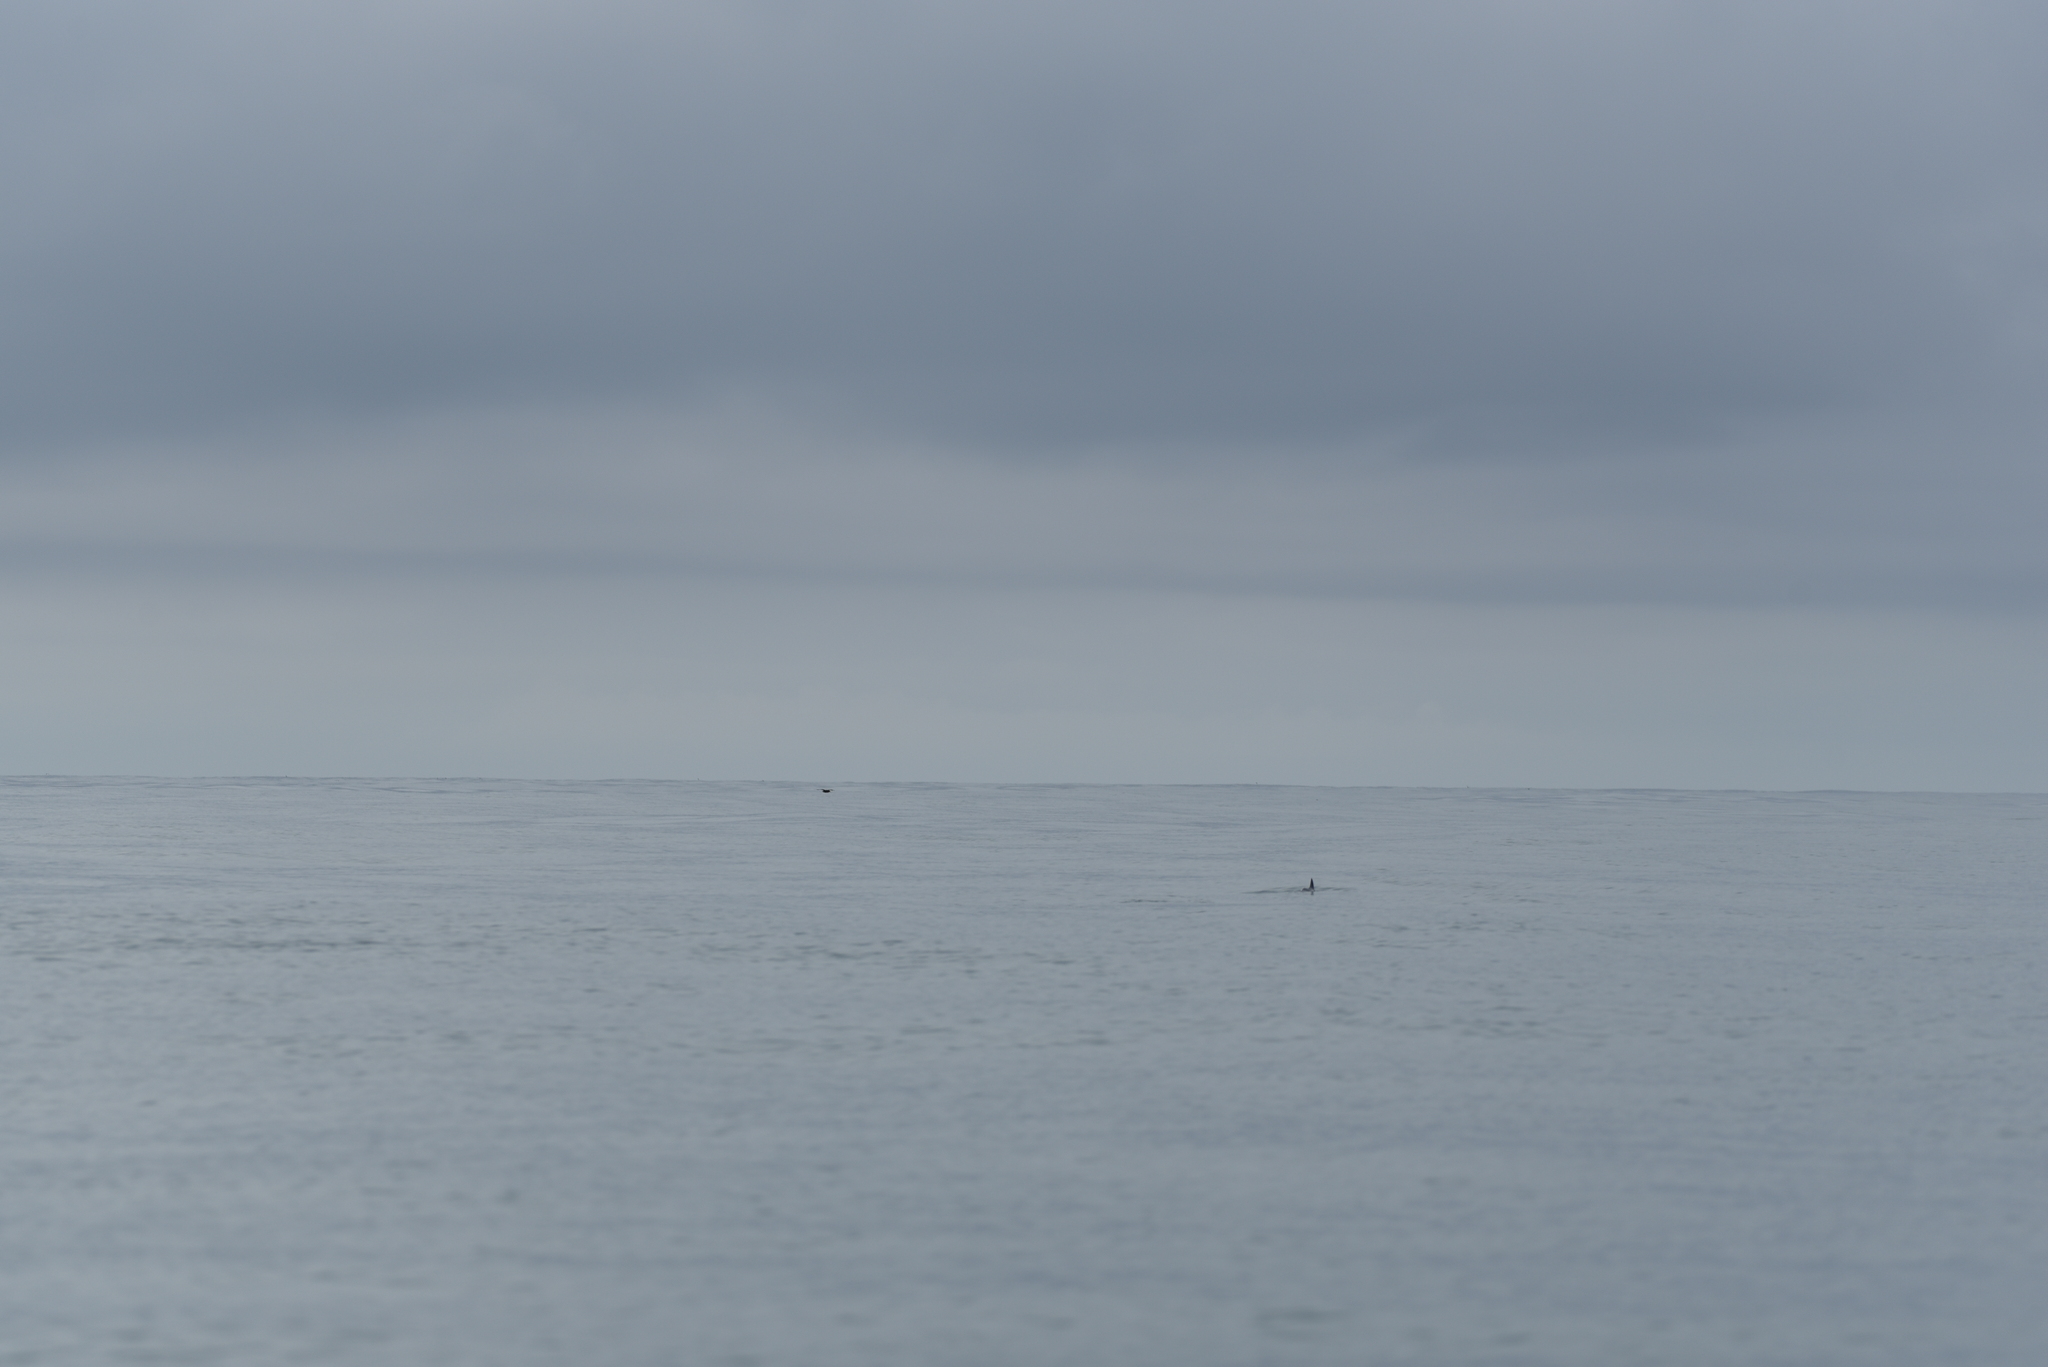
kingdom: Animalia
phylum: Chordata
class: Mammalia
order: Cetacea
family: Phocoenidae
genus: Phocoena
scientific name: Phocoena phocoena
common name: Harbor porpoise
